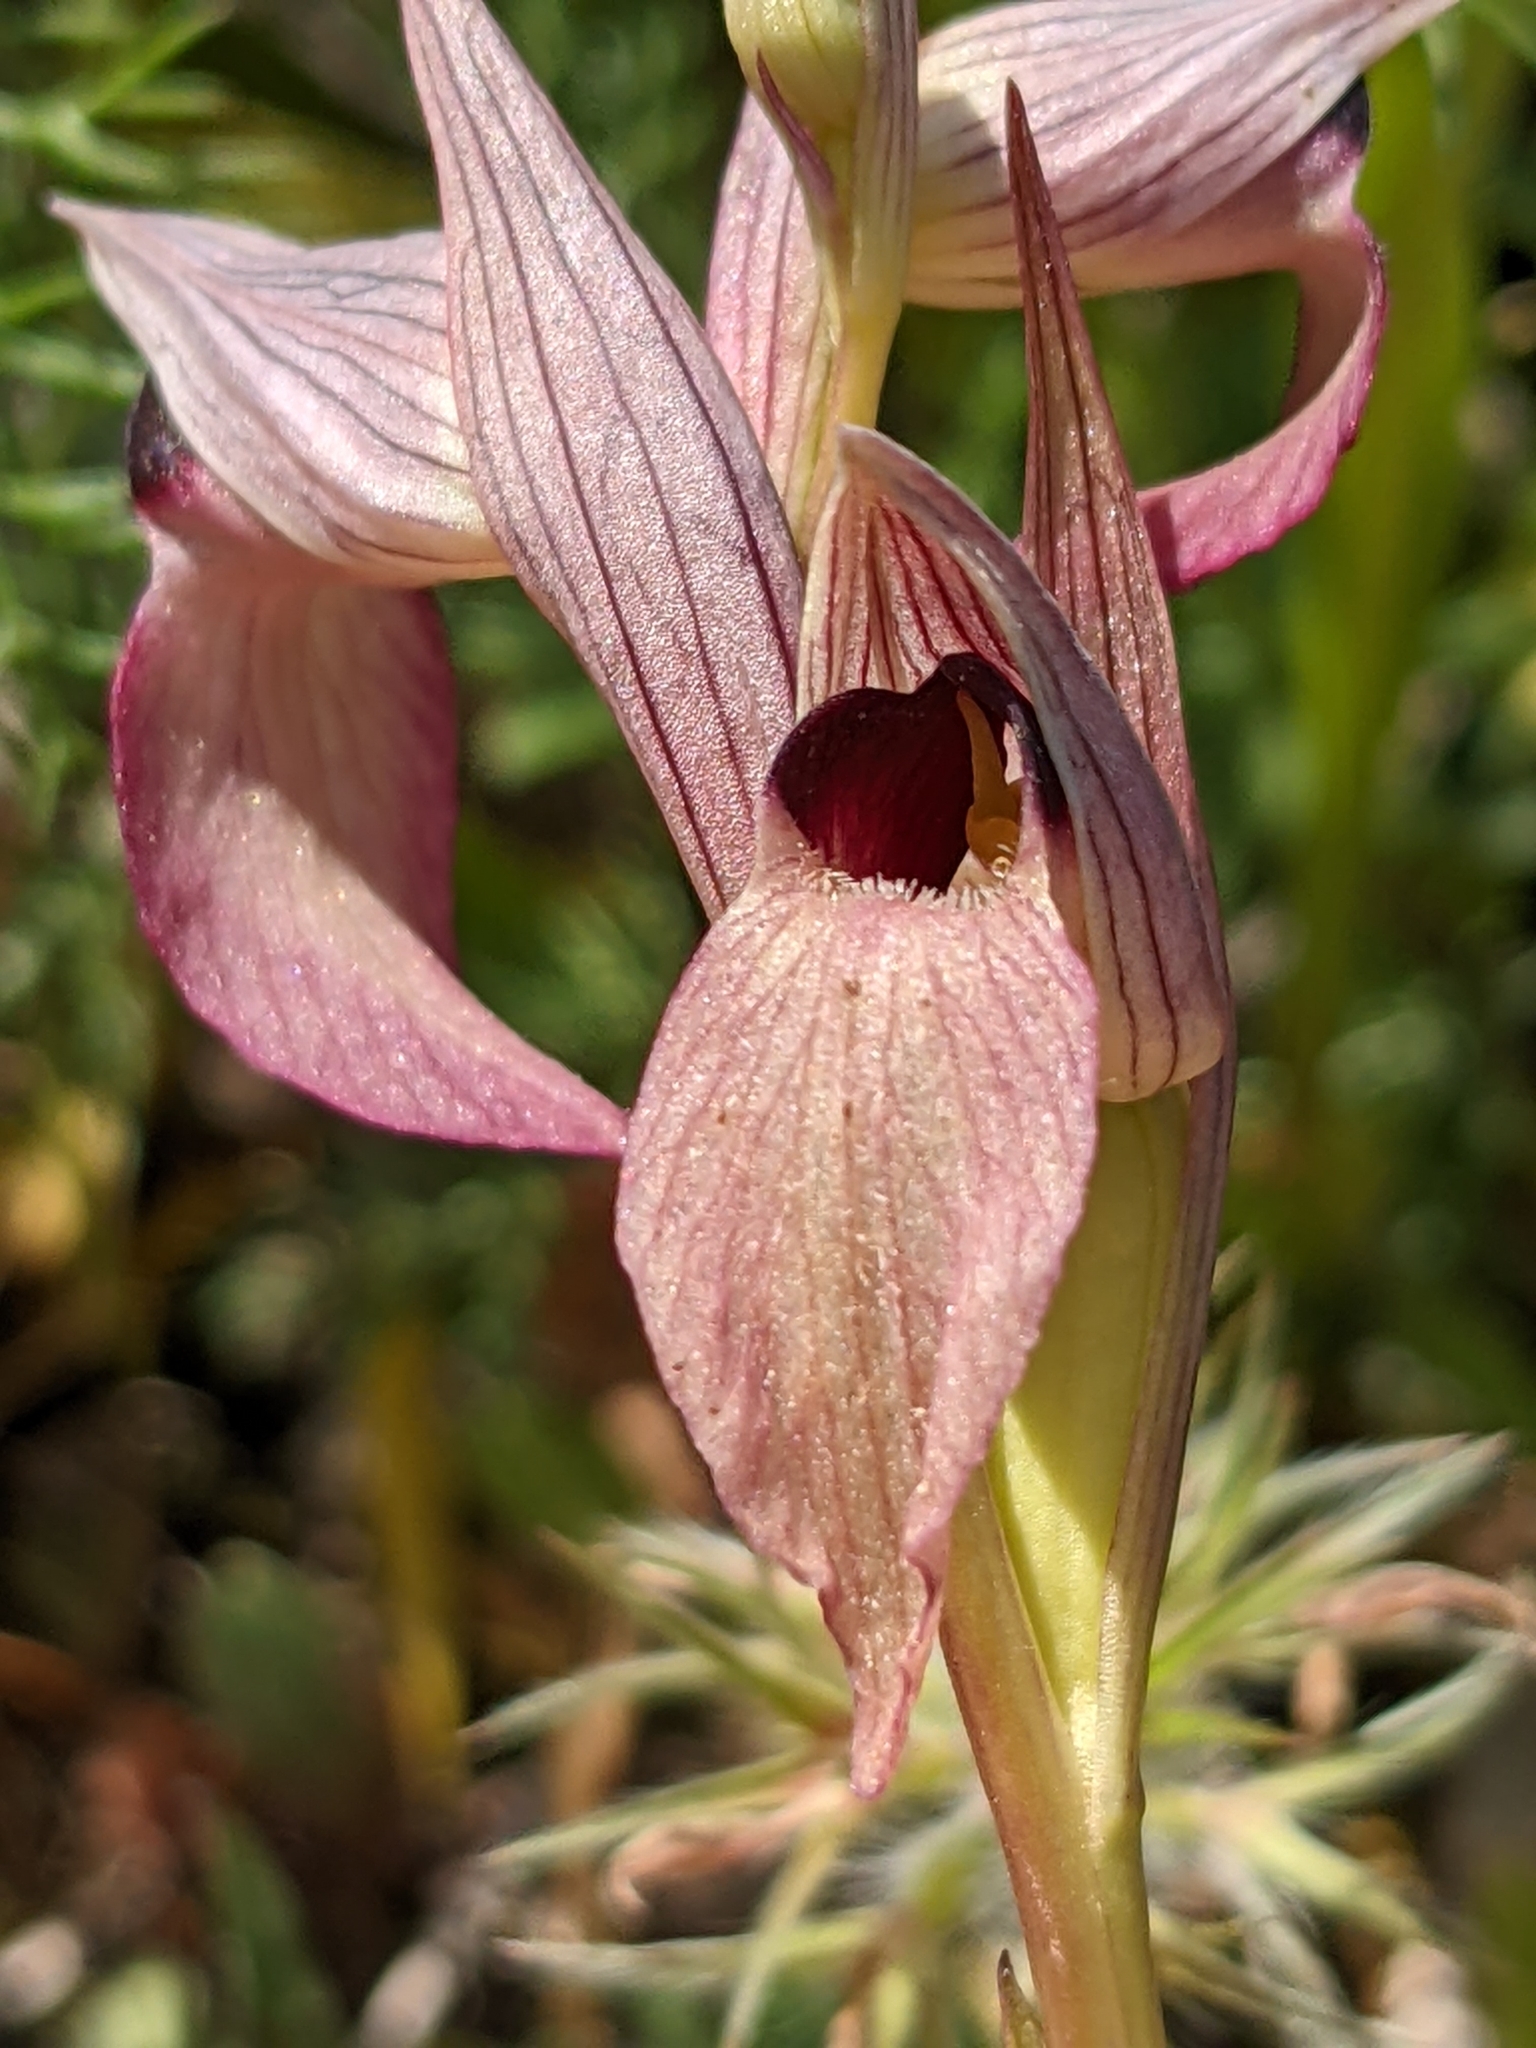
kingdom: Plantae
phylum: Tracheophyta
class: Liliopsida
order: Asparagales
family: Orchidaceae
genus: Serapias
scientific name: Serapias lingua
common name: Tongue-orchid
